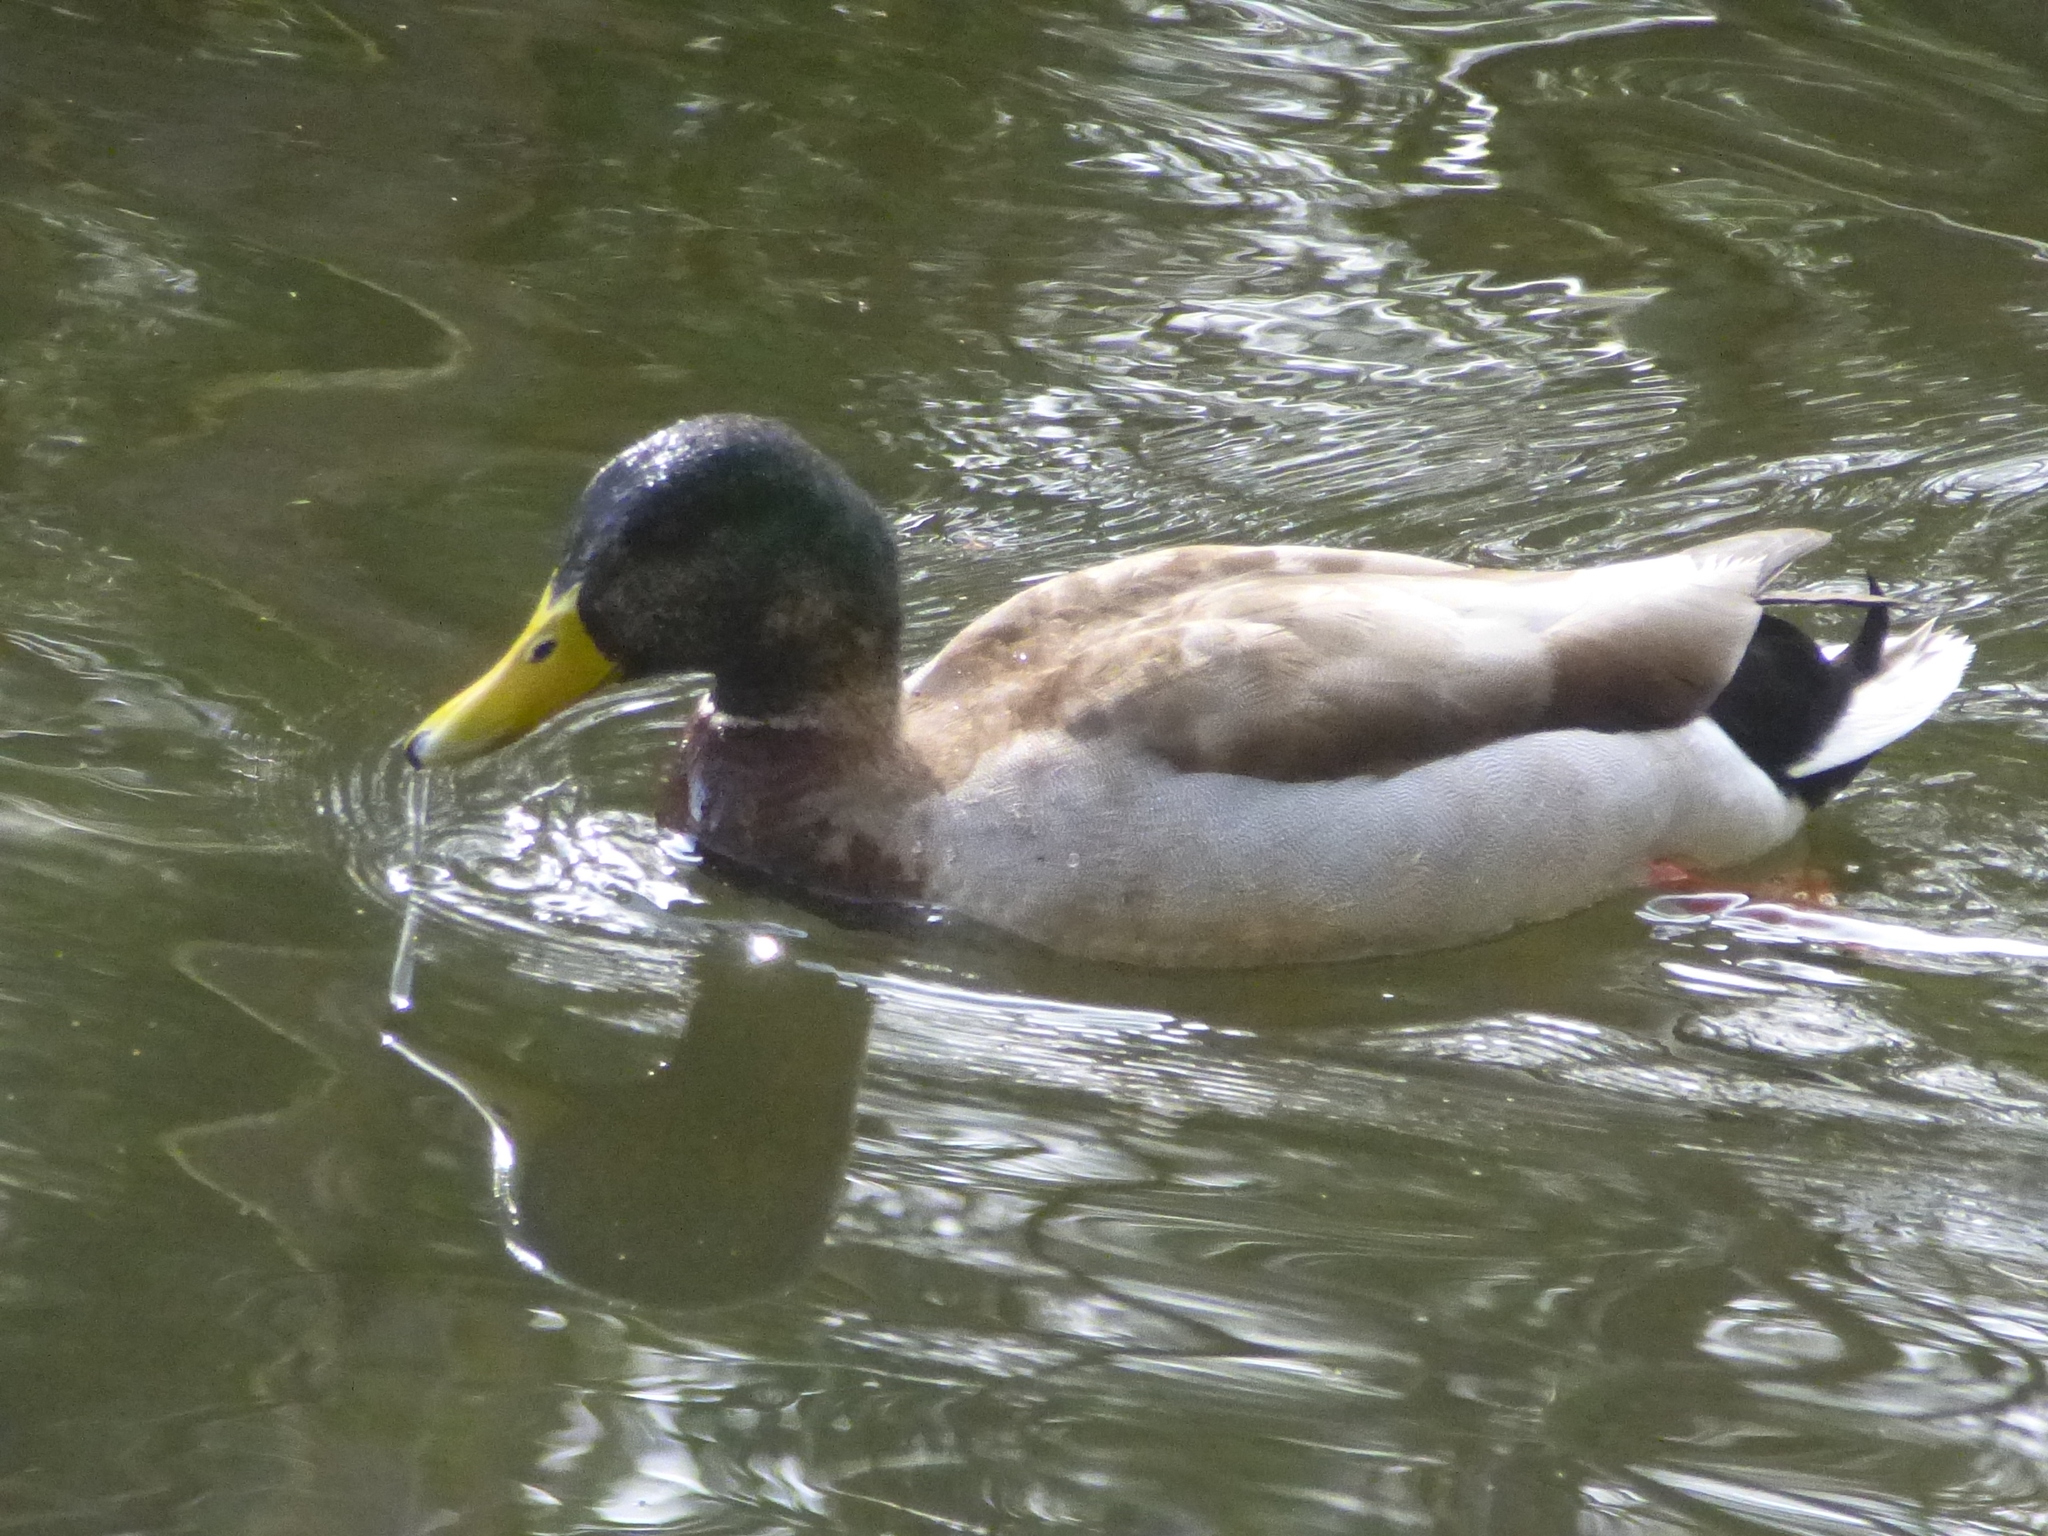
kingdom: Animalia
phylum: Chordata
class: Aves
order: Anseriformes
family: Anatidae
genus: Anas
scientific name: Anas platyrhynchos
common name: Mallard
